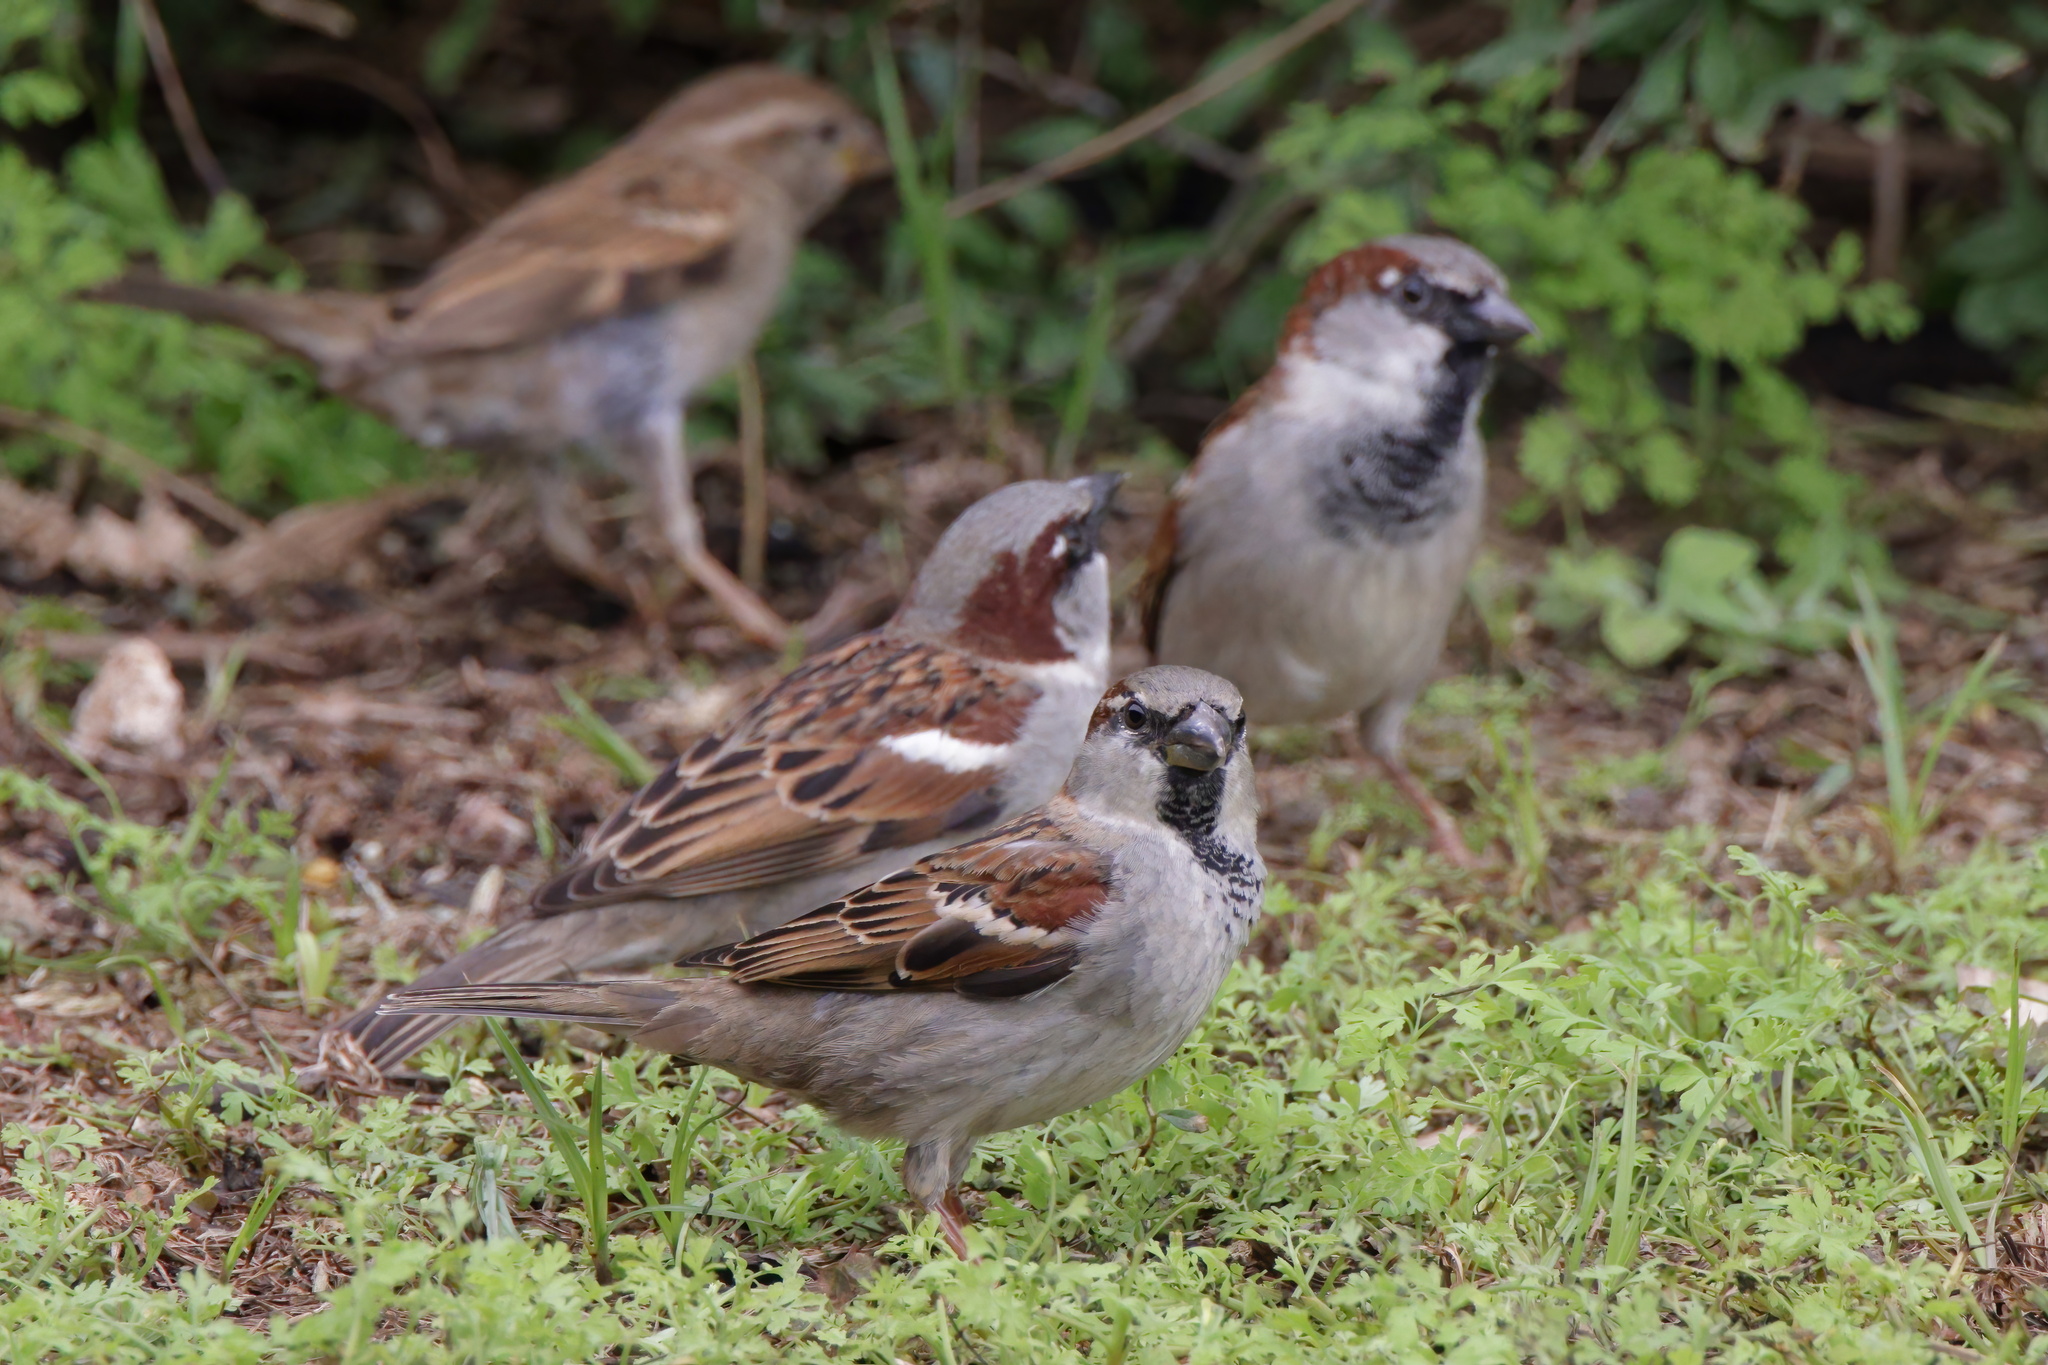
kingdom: Animalia
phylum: Chordata
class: Aves
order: Passeriformes
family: Passeridae
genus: Passer
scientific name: Passer domesticus
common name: House sparrow
